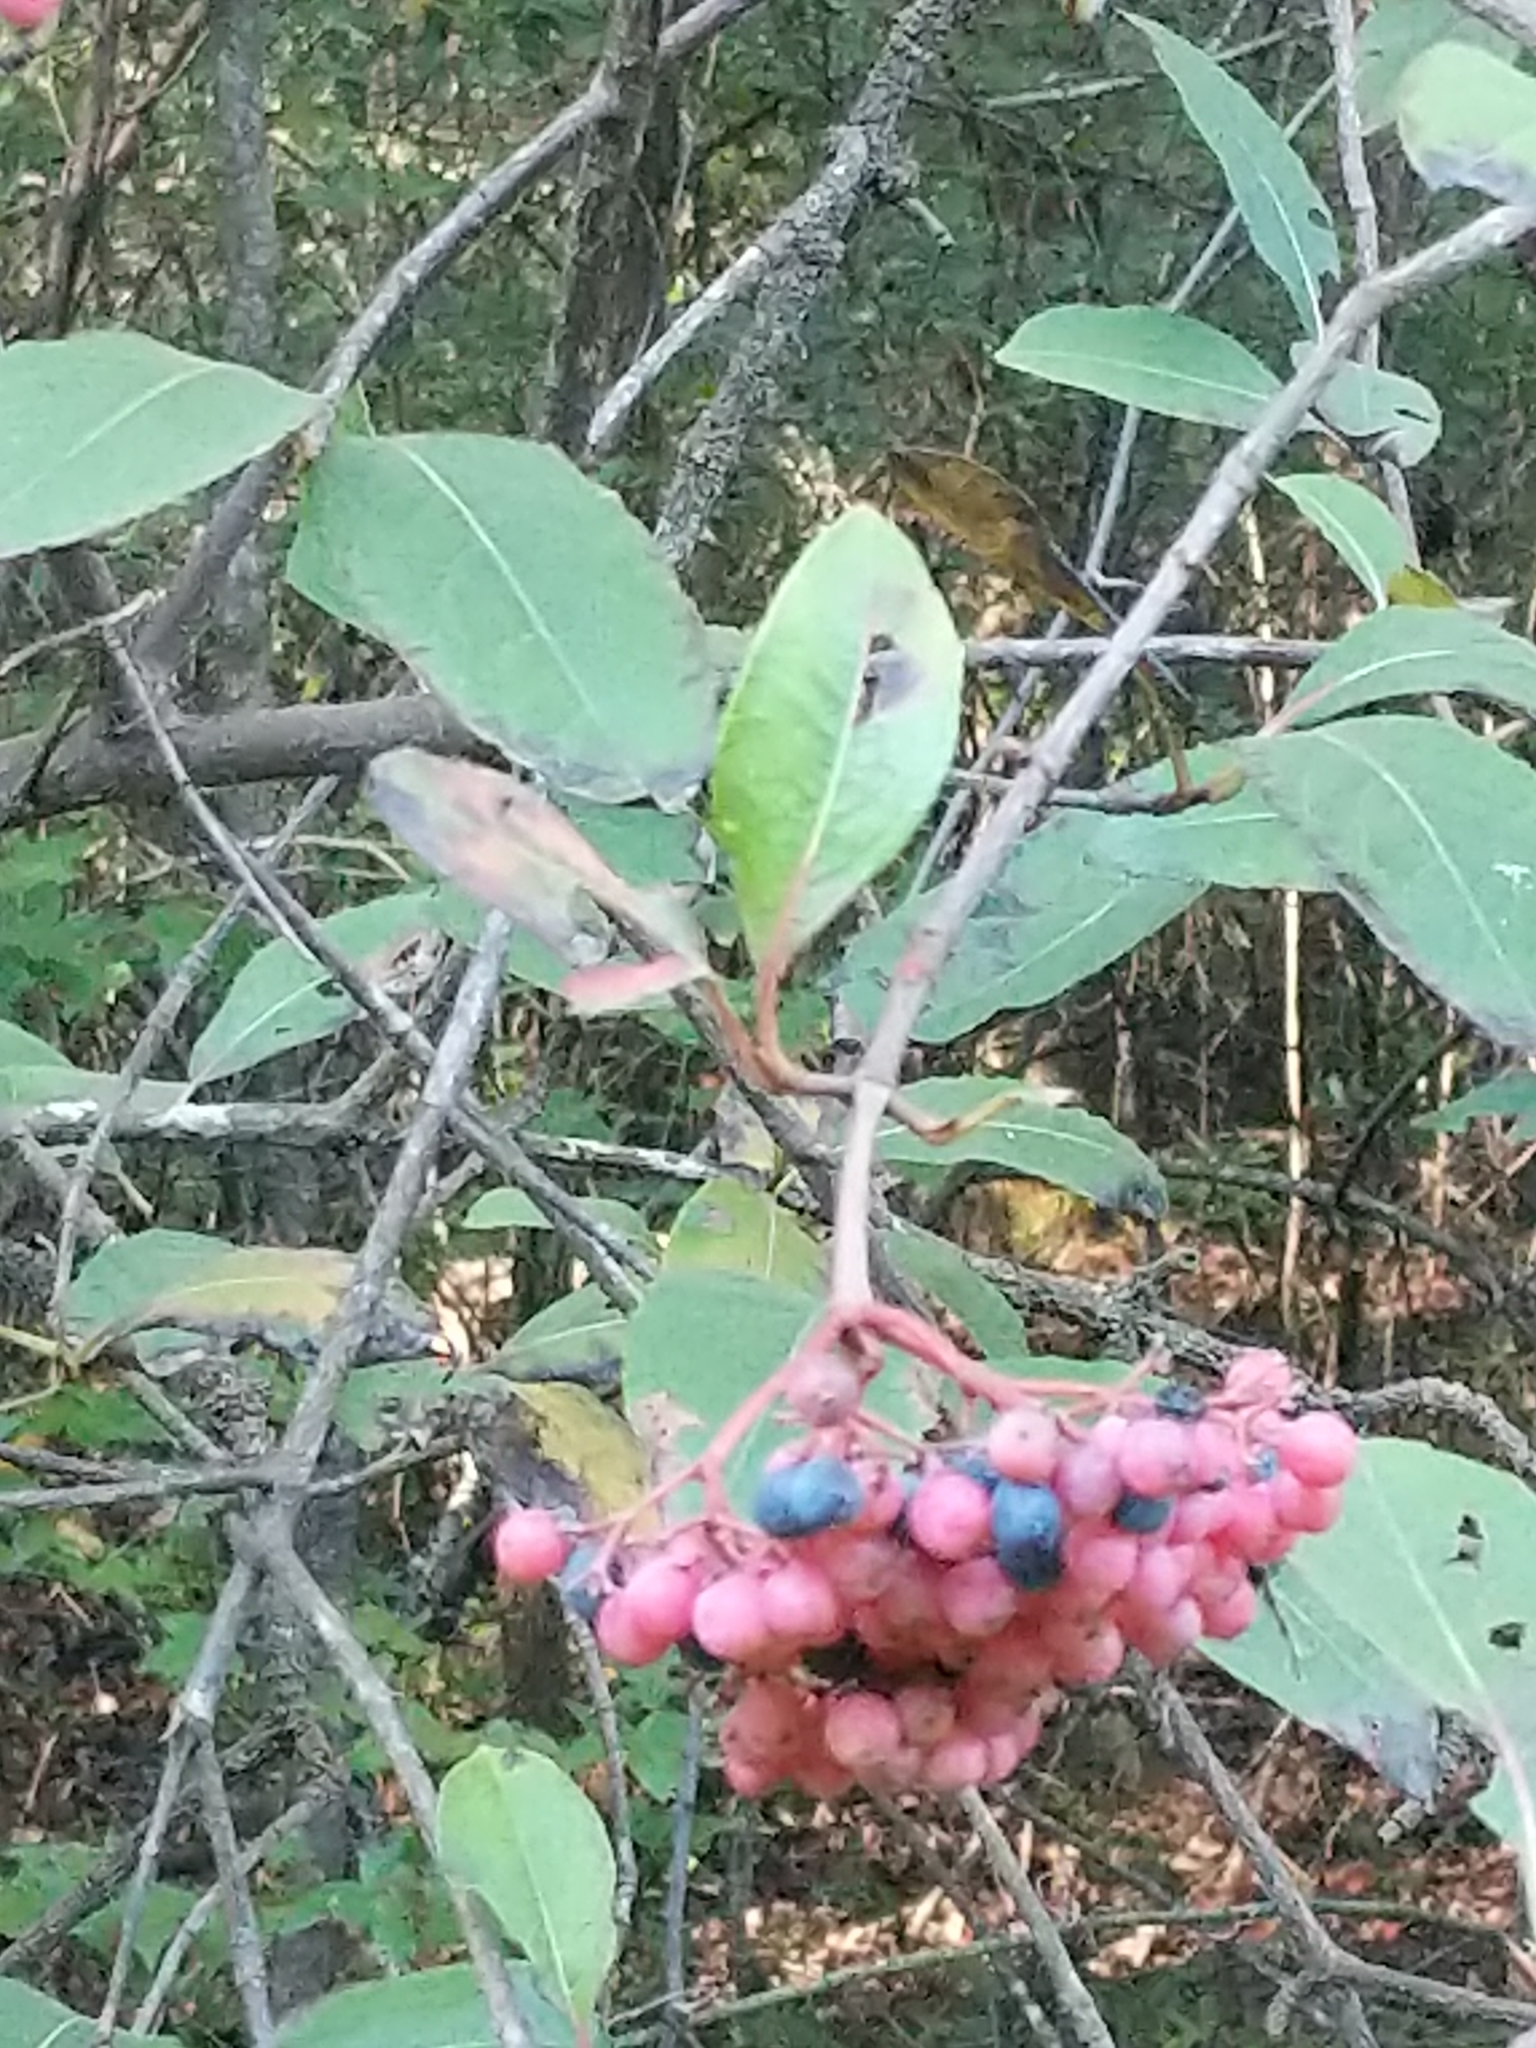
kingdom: Plantae
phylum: Tracheophyta
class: Magnoliopsida
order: Dipsacales
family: Viburnaceae
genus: Viburnum
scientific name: Viburnum nudum
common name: Possum haw
